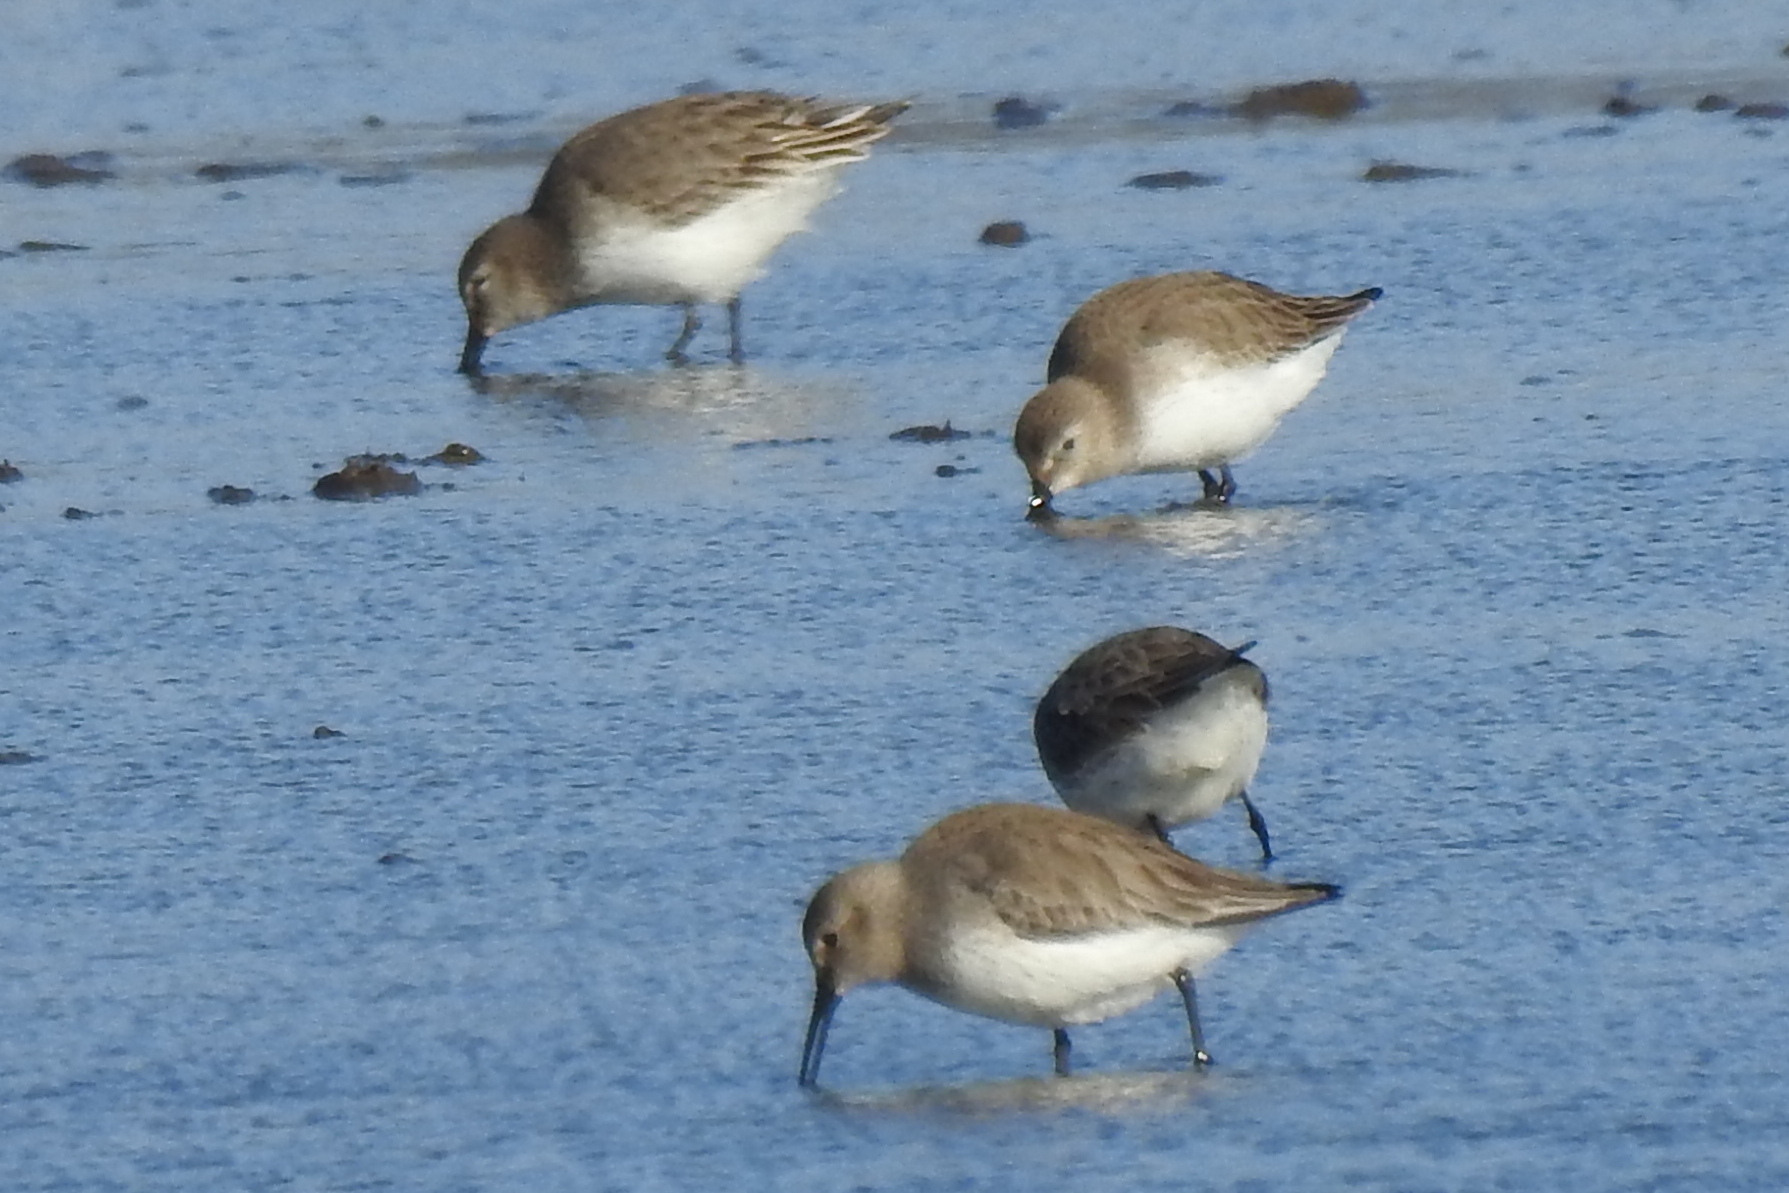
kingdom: Animalia
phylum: Chordata
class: Aves
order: Charadriiformes
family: Scolopacidae
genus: Calidris
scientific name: Calidris alpina
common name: Dunlin
